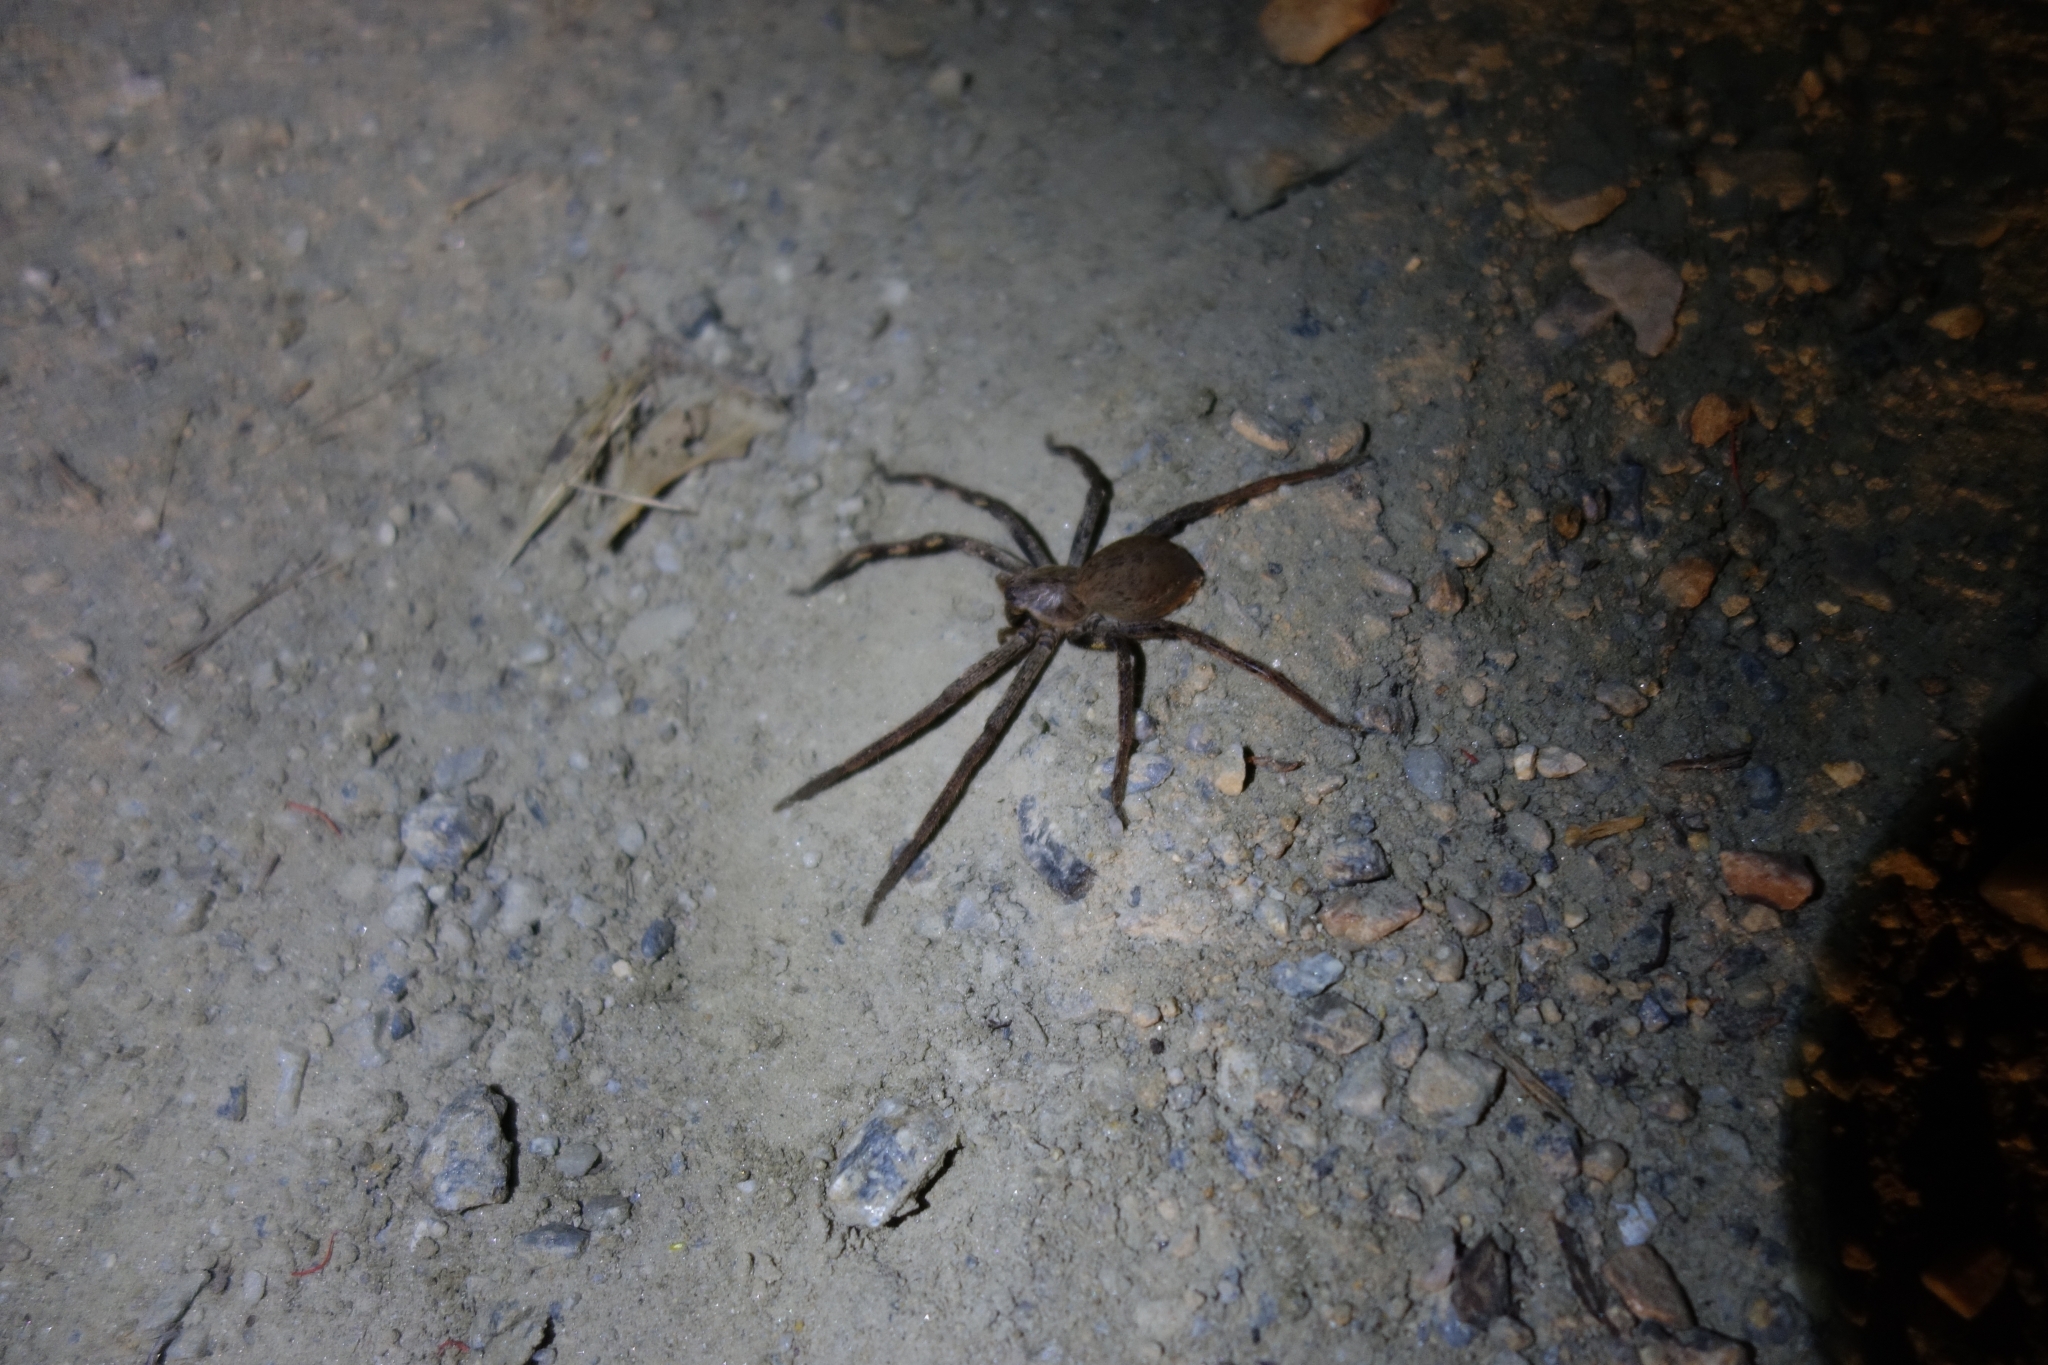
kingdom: Animalia
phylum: Arthropoda
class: Arachnida
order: Araneae
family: Sparassidae
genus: Palystes
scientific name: Palystes superciliosus
